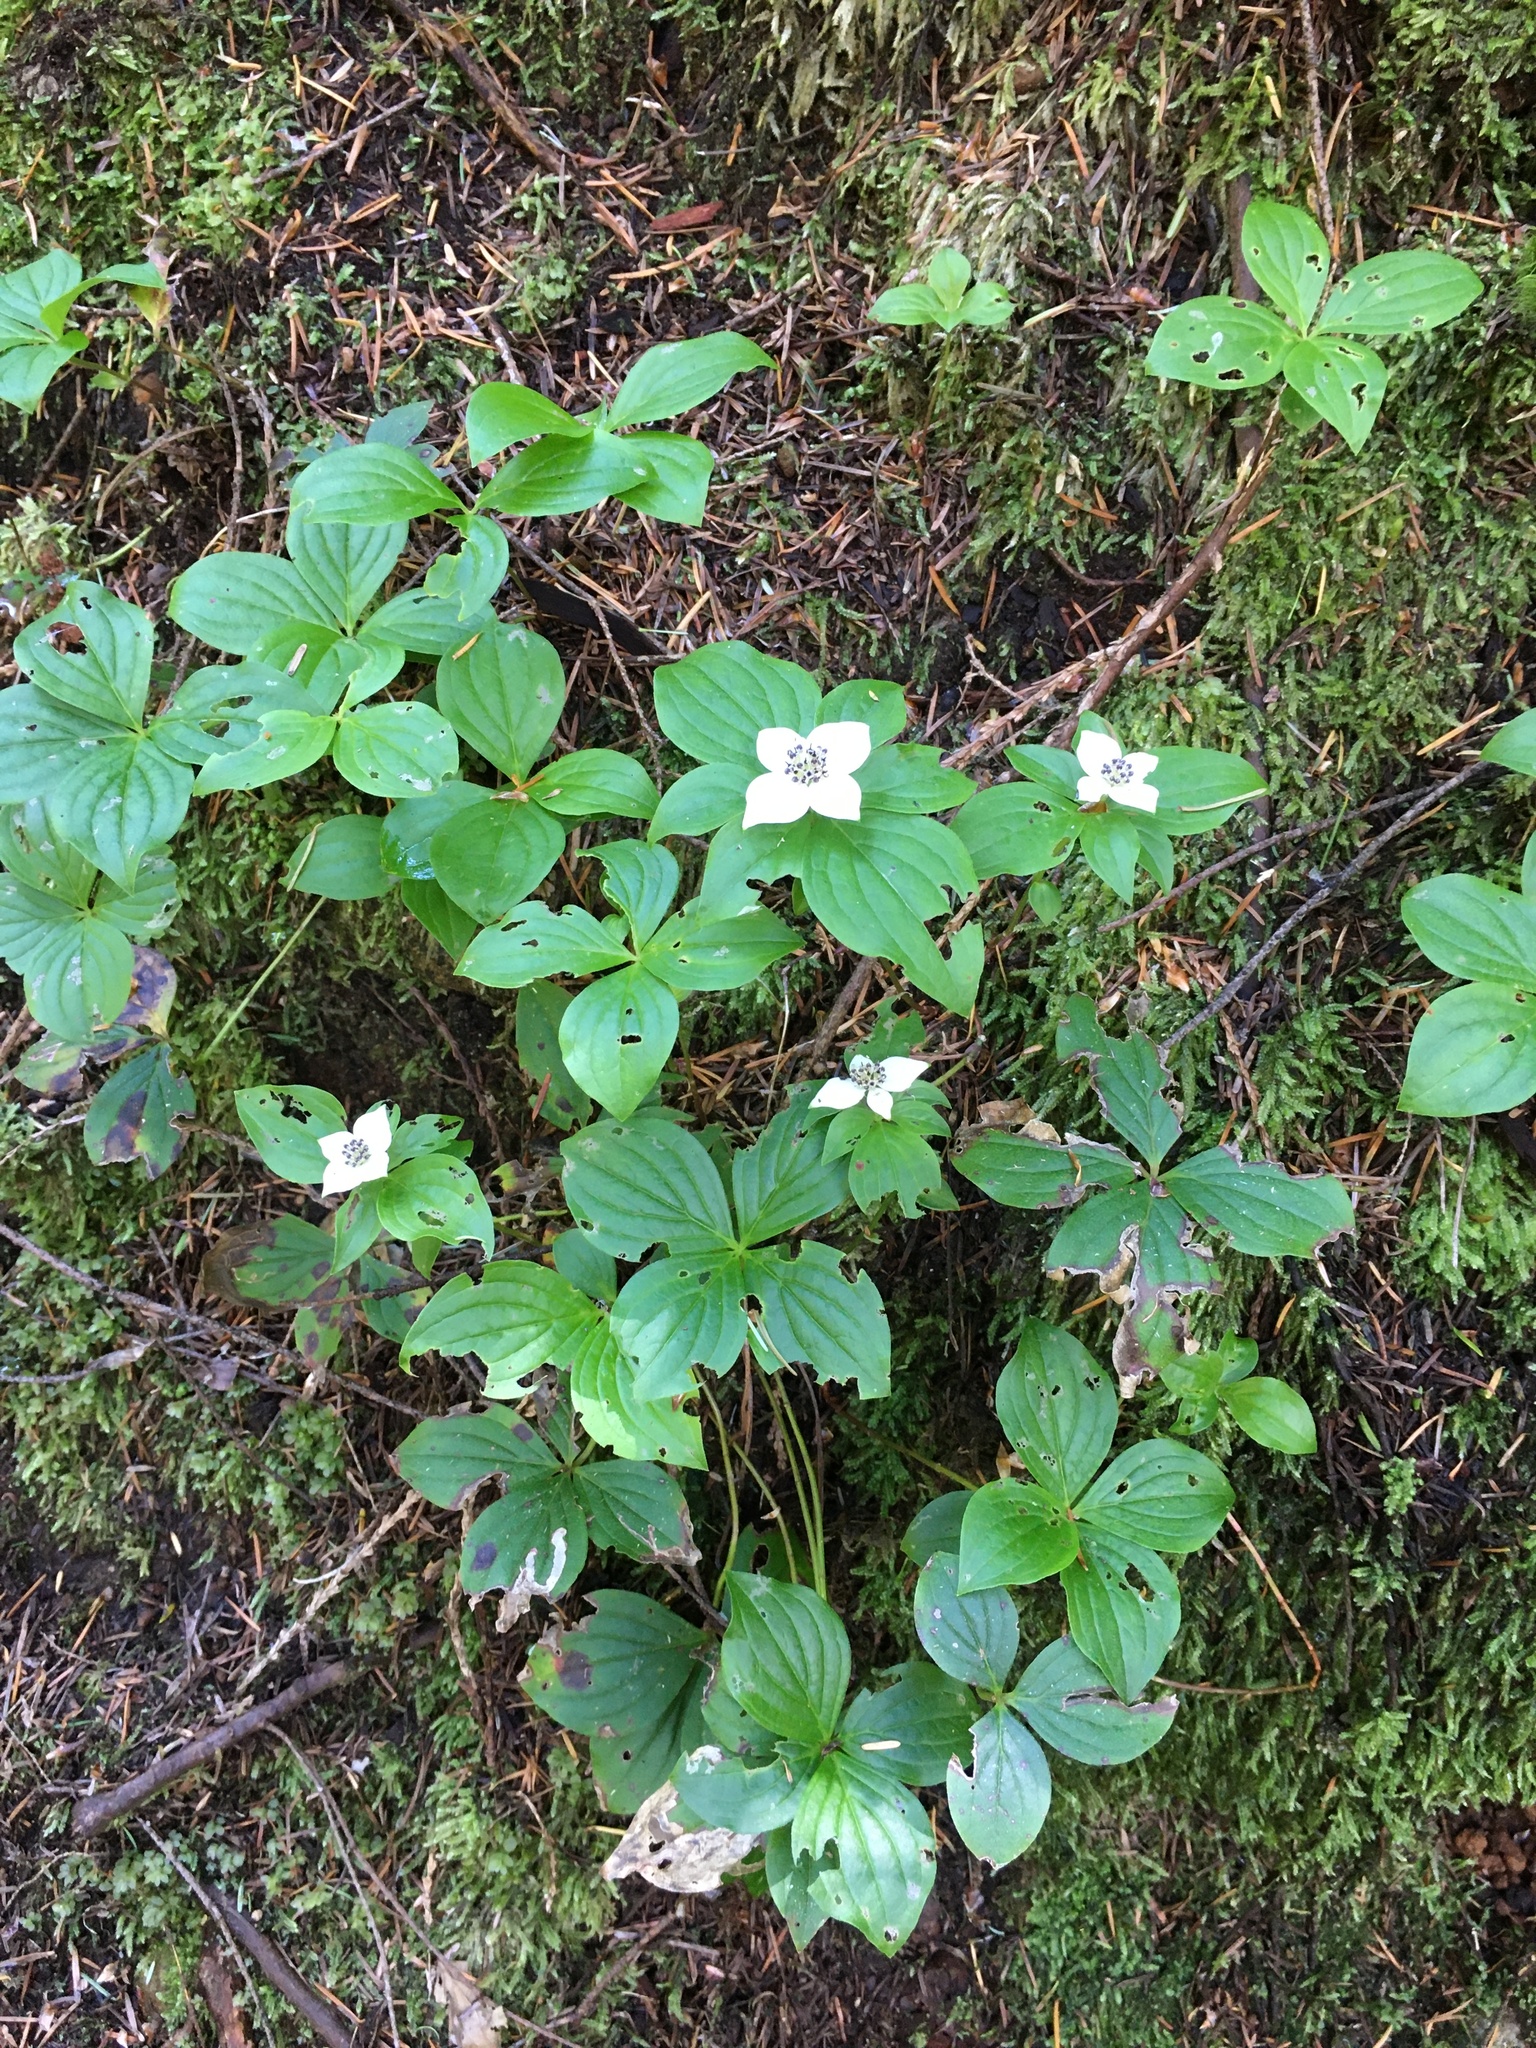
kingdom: Plantae
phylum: Tracheophyta
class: Magnoliopsida
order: Cornales
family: Cornaceae
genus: Cornus
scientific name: Cornus unalaschkensis
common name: Alaska bunchberry
